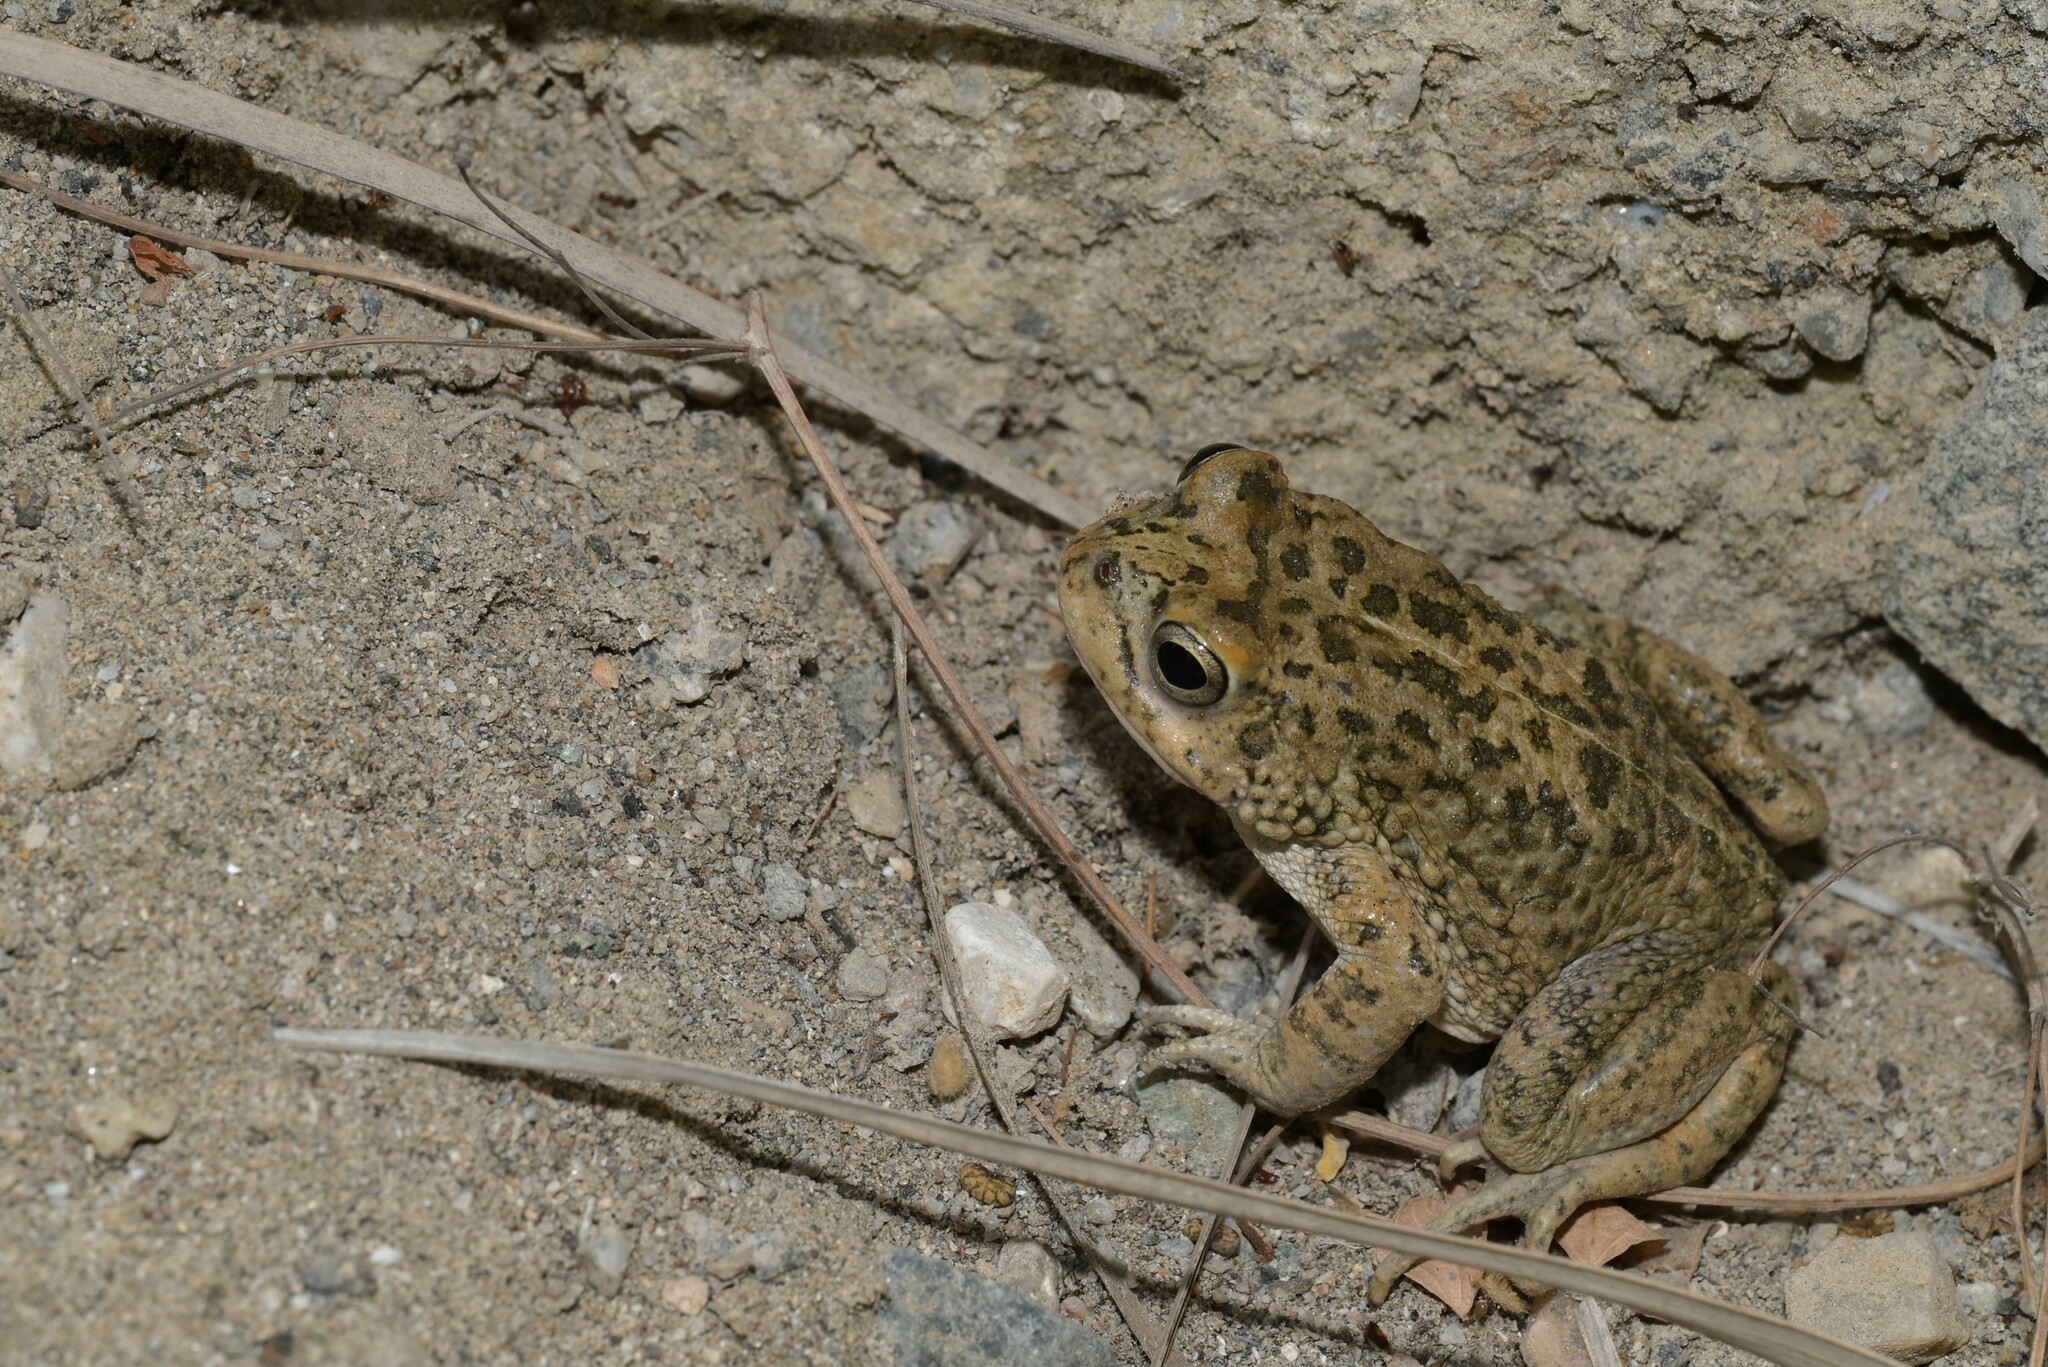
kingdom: Animalia
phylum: Chordata
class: Amphibia
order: Anura
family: Bufonidae
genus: Sclerophrys
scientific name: Sclerophrys arabica
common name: Arabian toad
